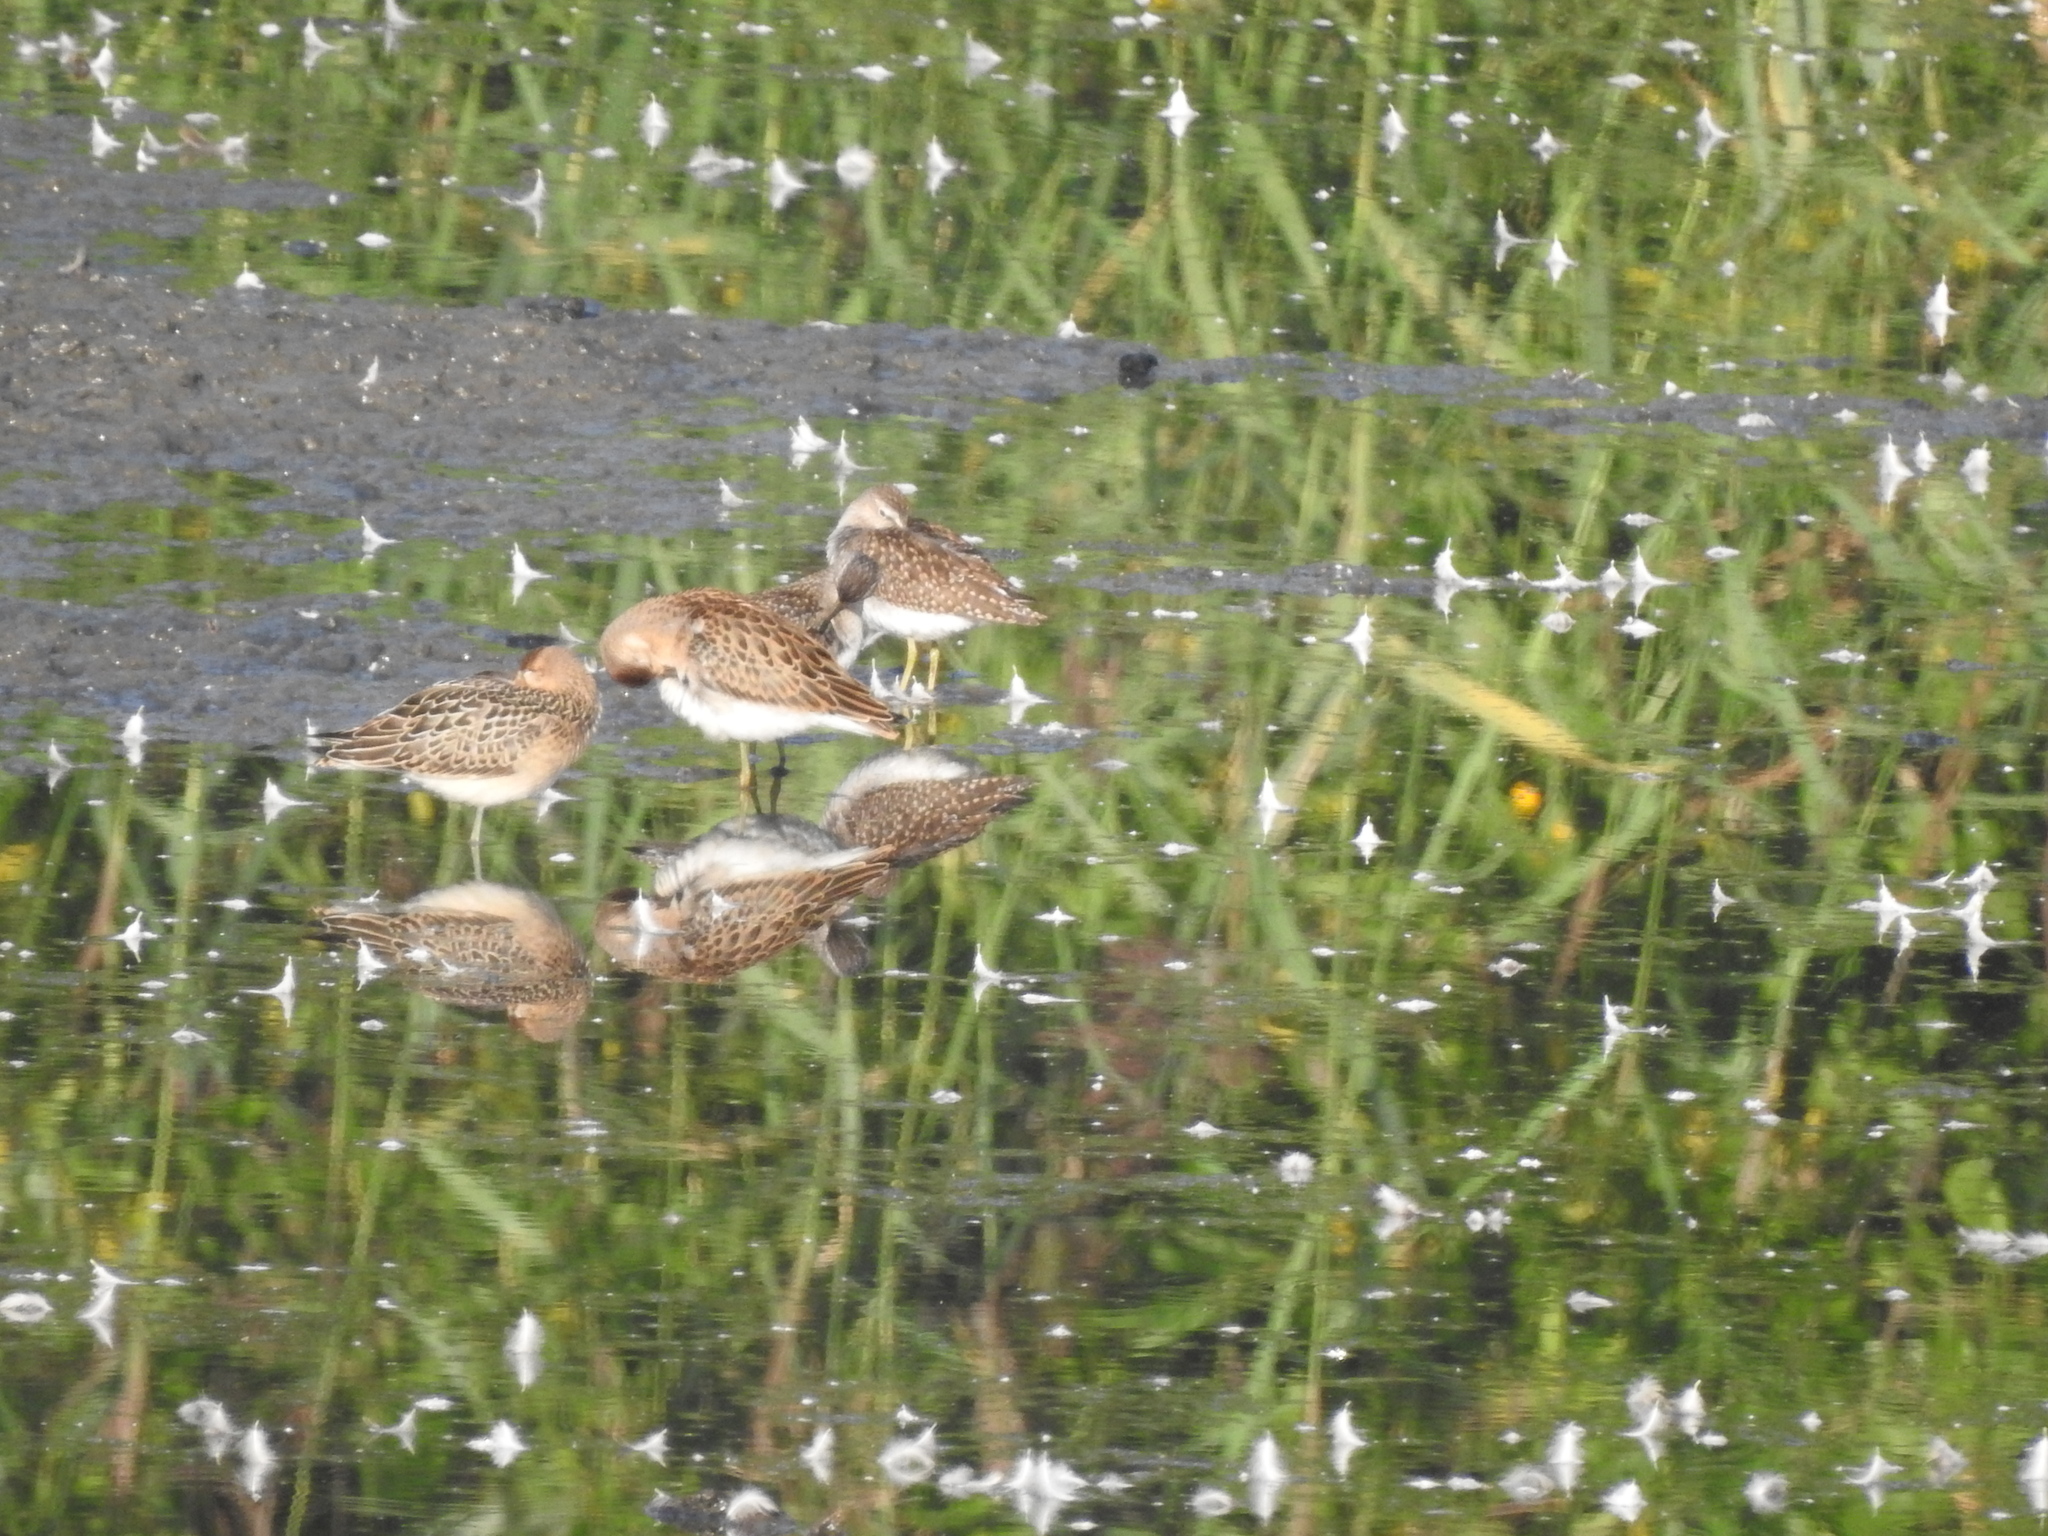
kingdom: Animalia
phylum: Chordata
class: Aves
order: Charadriiformes
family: Scolopacidae
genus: Calidris
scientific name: Calidris pugnax
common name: Ruff
